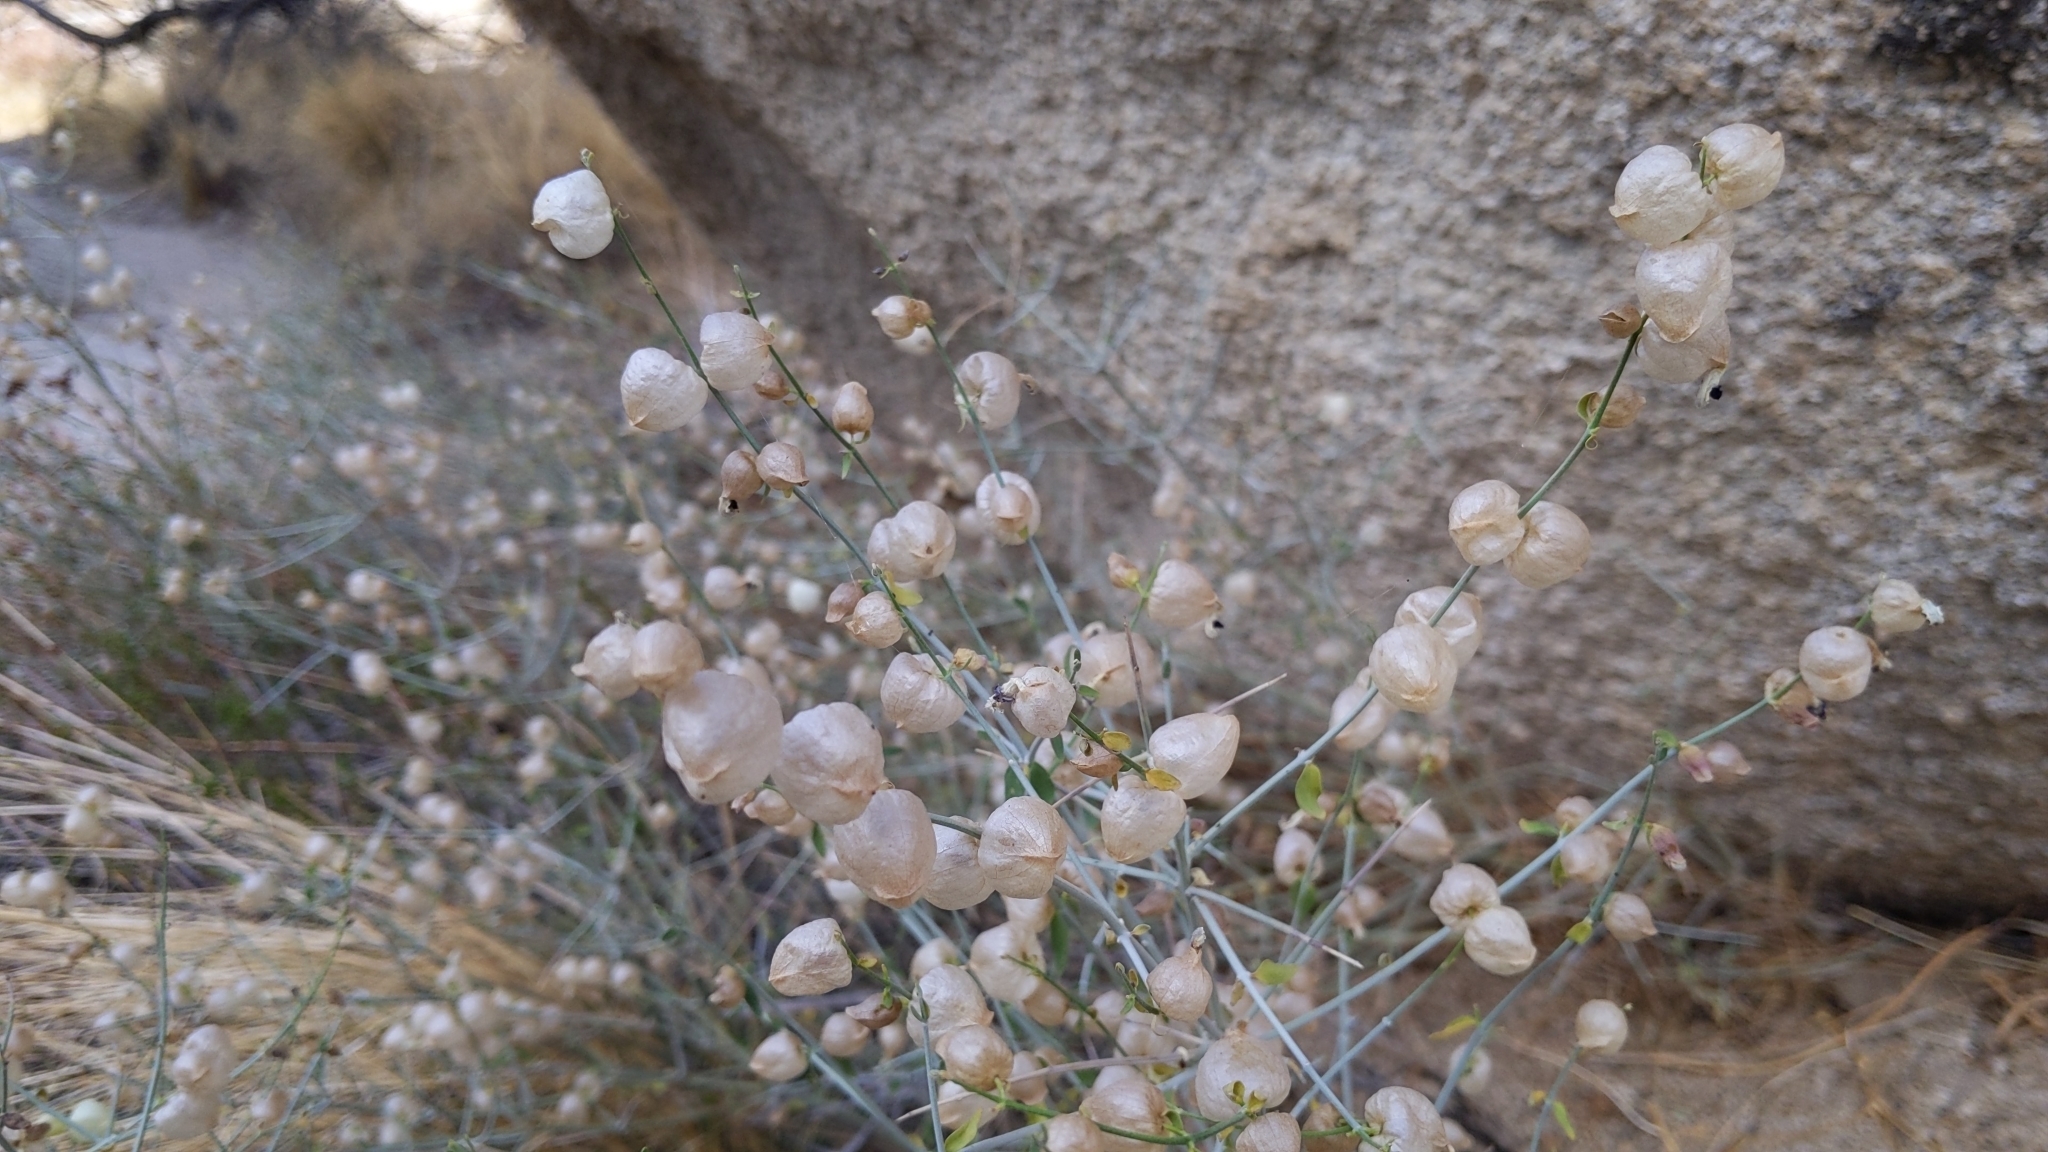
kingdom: Plantae
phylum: Tracheophyta
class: Magnoliopsida
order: Lamiales
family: Lamiaceae
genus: Scutellaria
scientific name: Scutellaria mexicana
